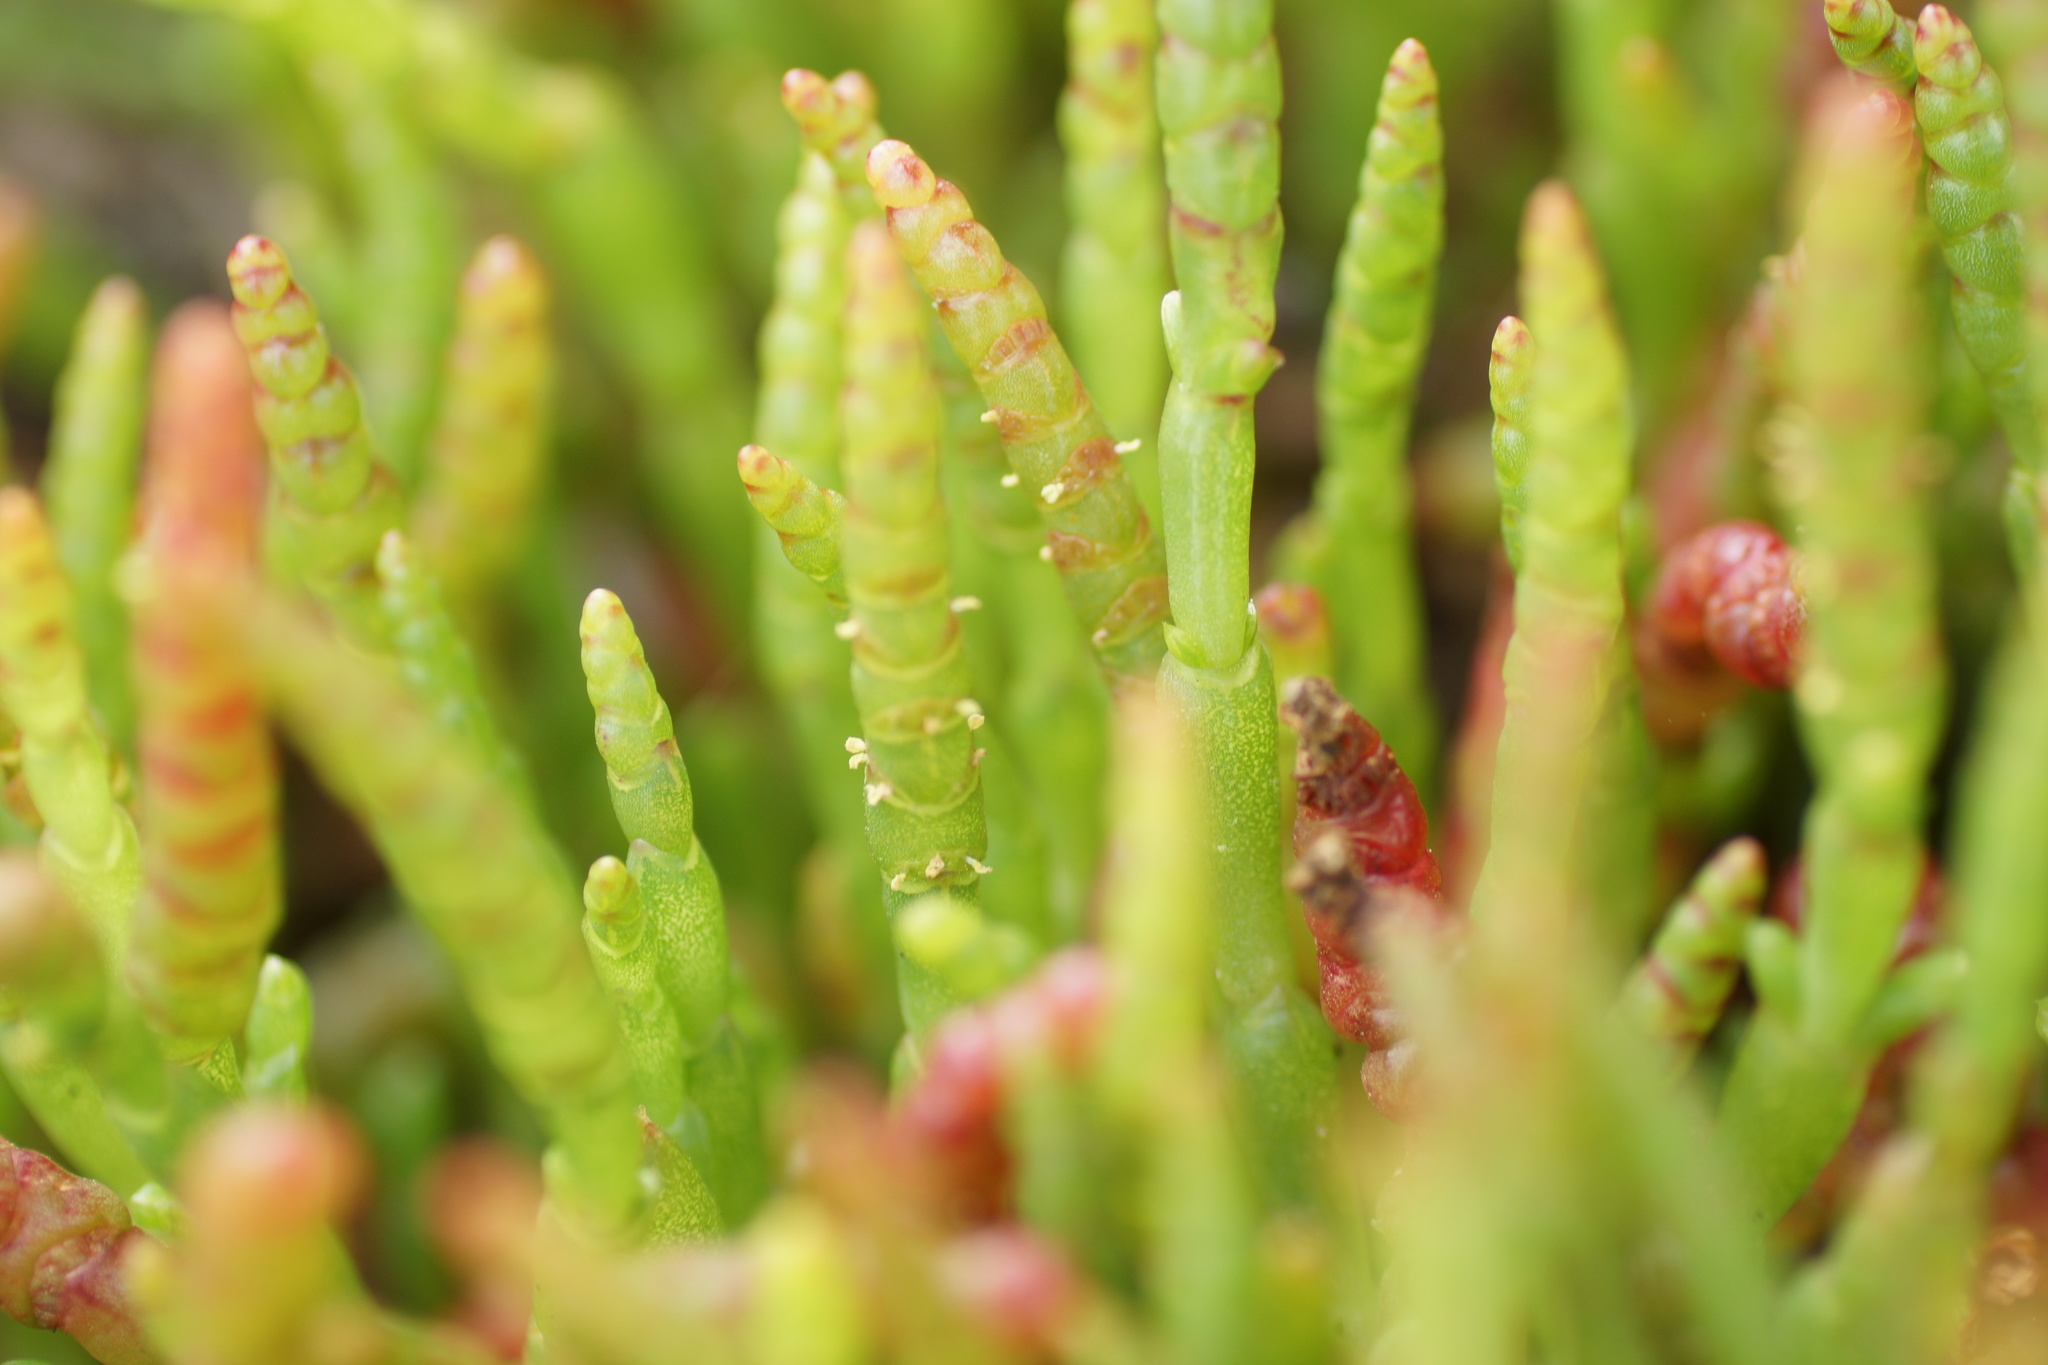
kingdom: Plantae
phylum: Tracheophyta
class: Magnoliopsida
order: Caryophyllales
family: Amaranthaceae
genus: Salicornia
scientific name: Salicornia quinqueflora
